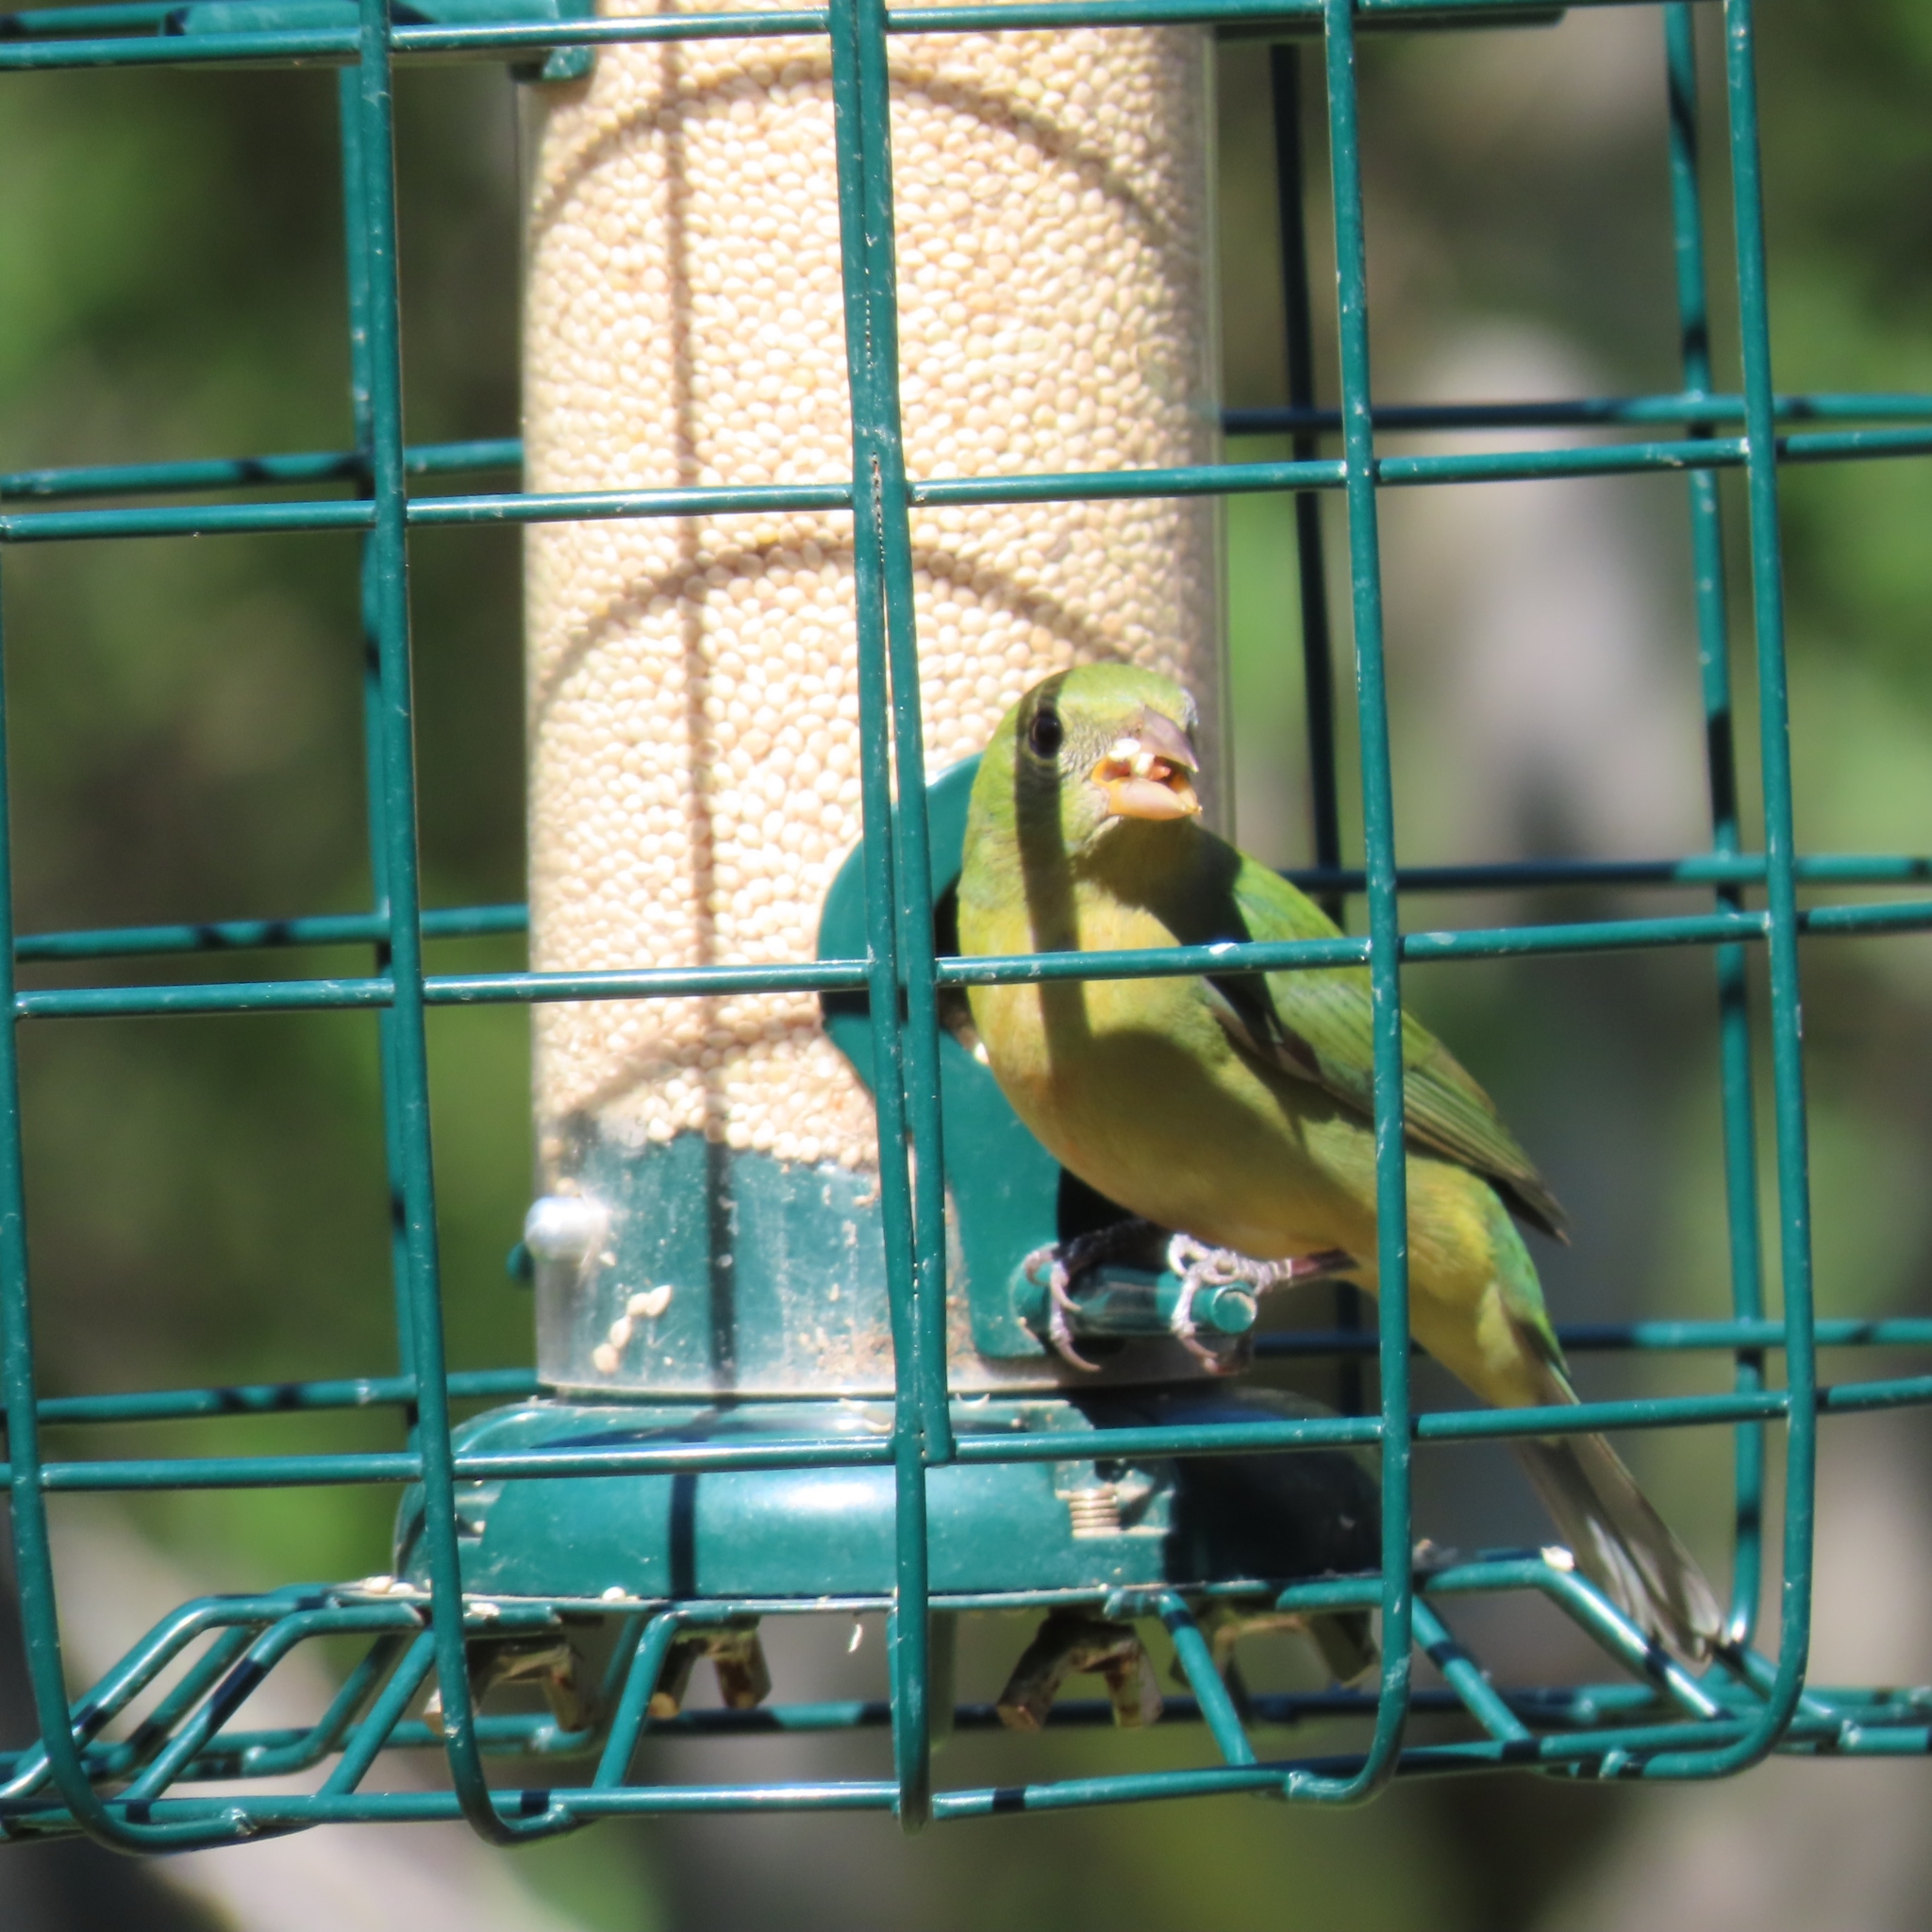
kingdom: Animalia
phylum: Chordata
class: Aves
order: Passeriformes
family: Cardinalidae
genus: Passerina
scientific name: Passerina ciris
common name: Painted bunting
